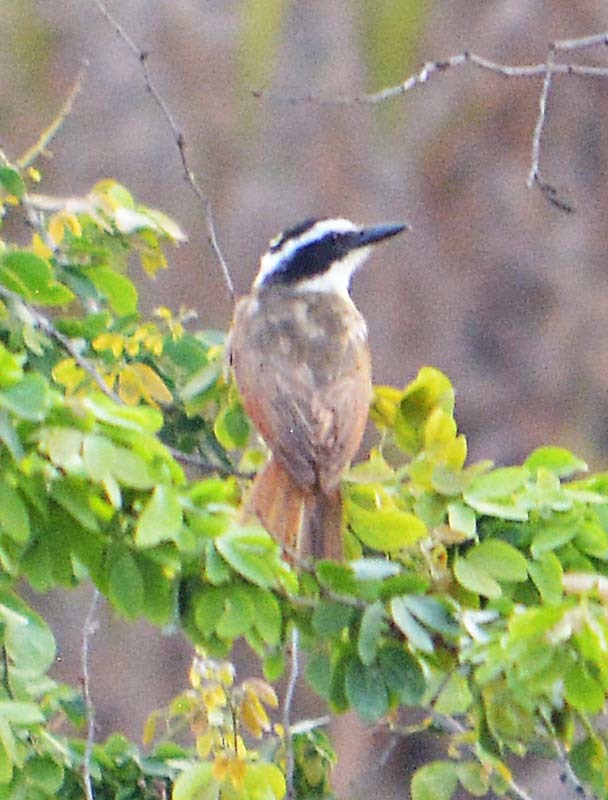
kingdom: Animalia
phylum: Chordata
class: Aves
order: Passeriformes
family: Tyrannidae
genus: Pitangus
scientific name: Pitangus sulphuratus
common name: Great kiskadee
